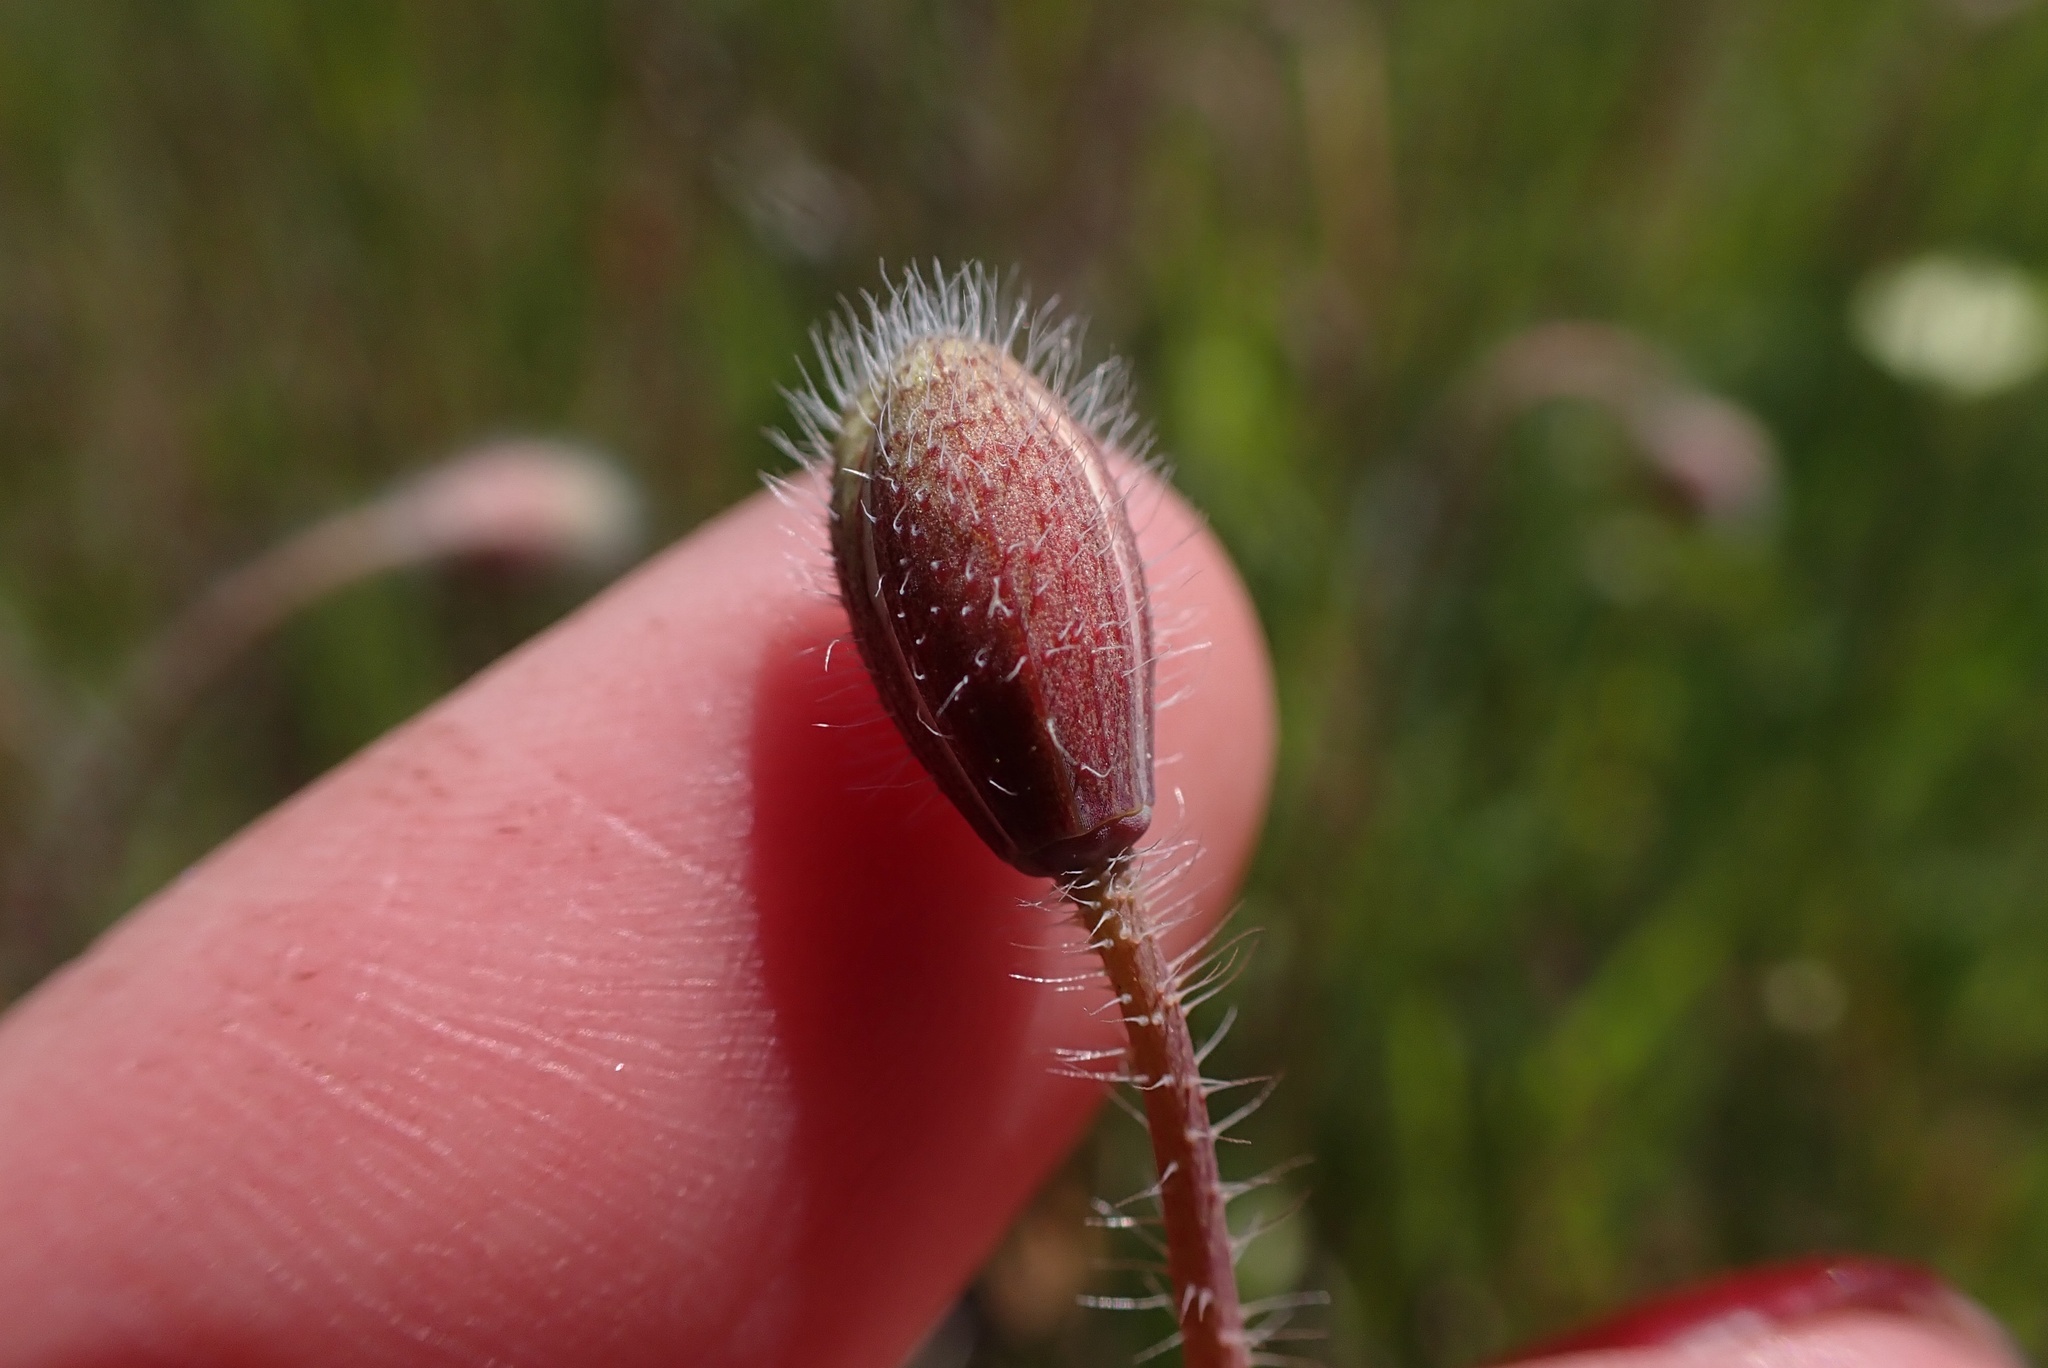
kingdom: Plantae
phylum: Tracheophyta
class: Magnoliopsida
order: Ranunculales
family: Papaveraceae
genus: Platystemon
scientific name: Platystemon californicus
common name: Cream-cups
